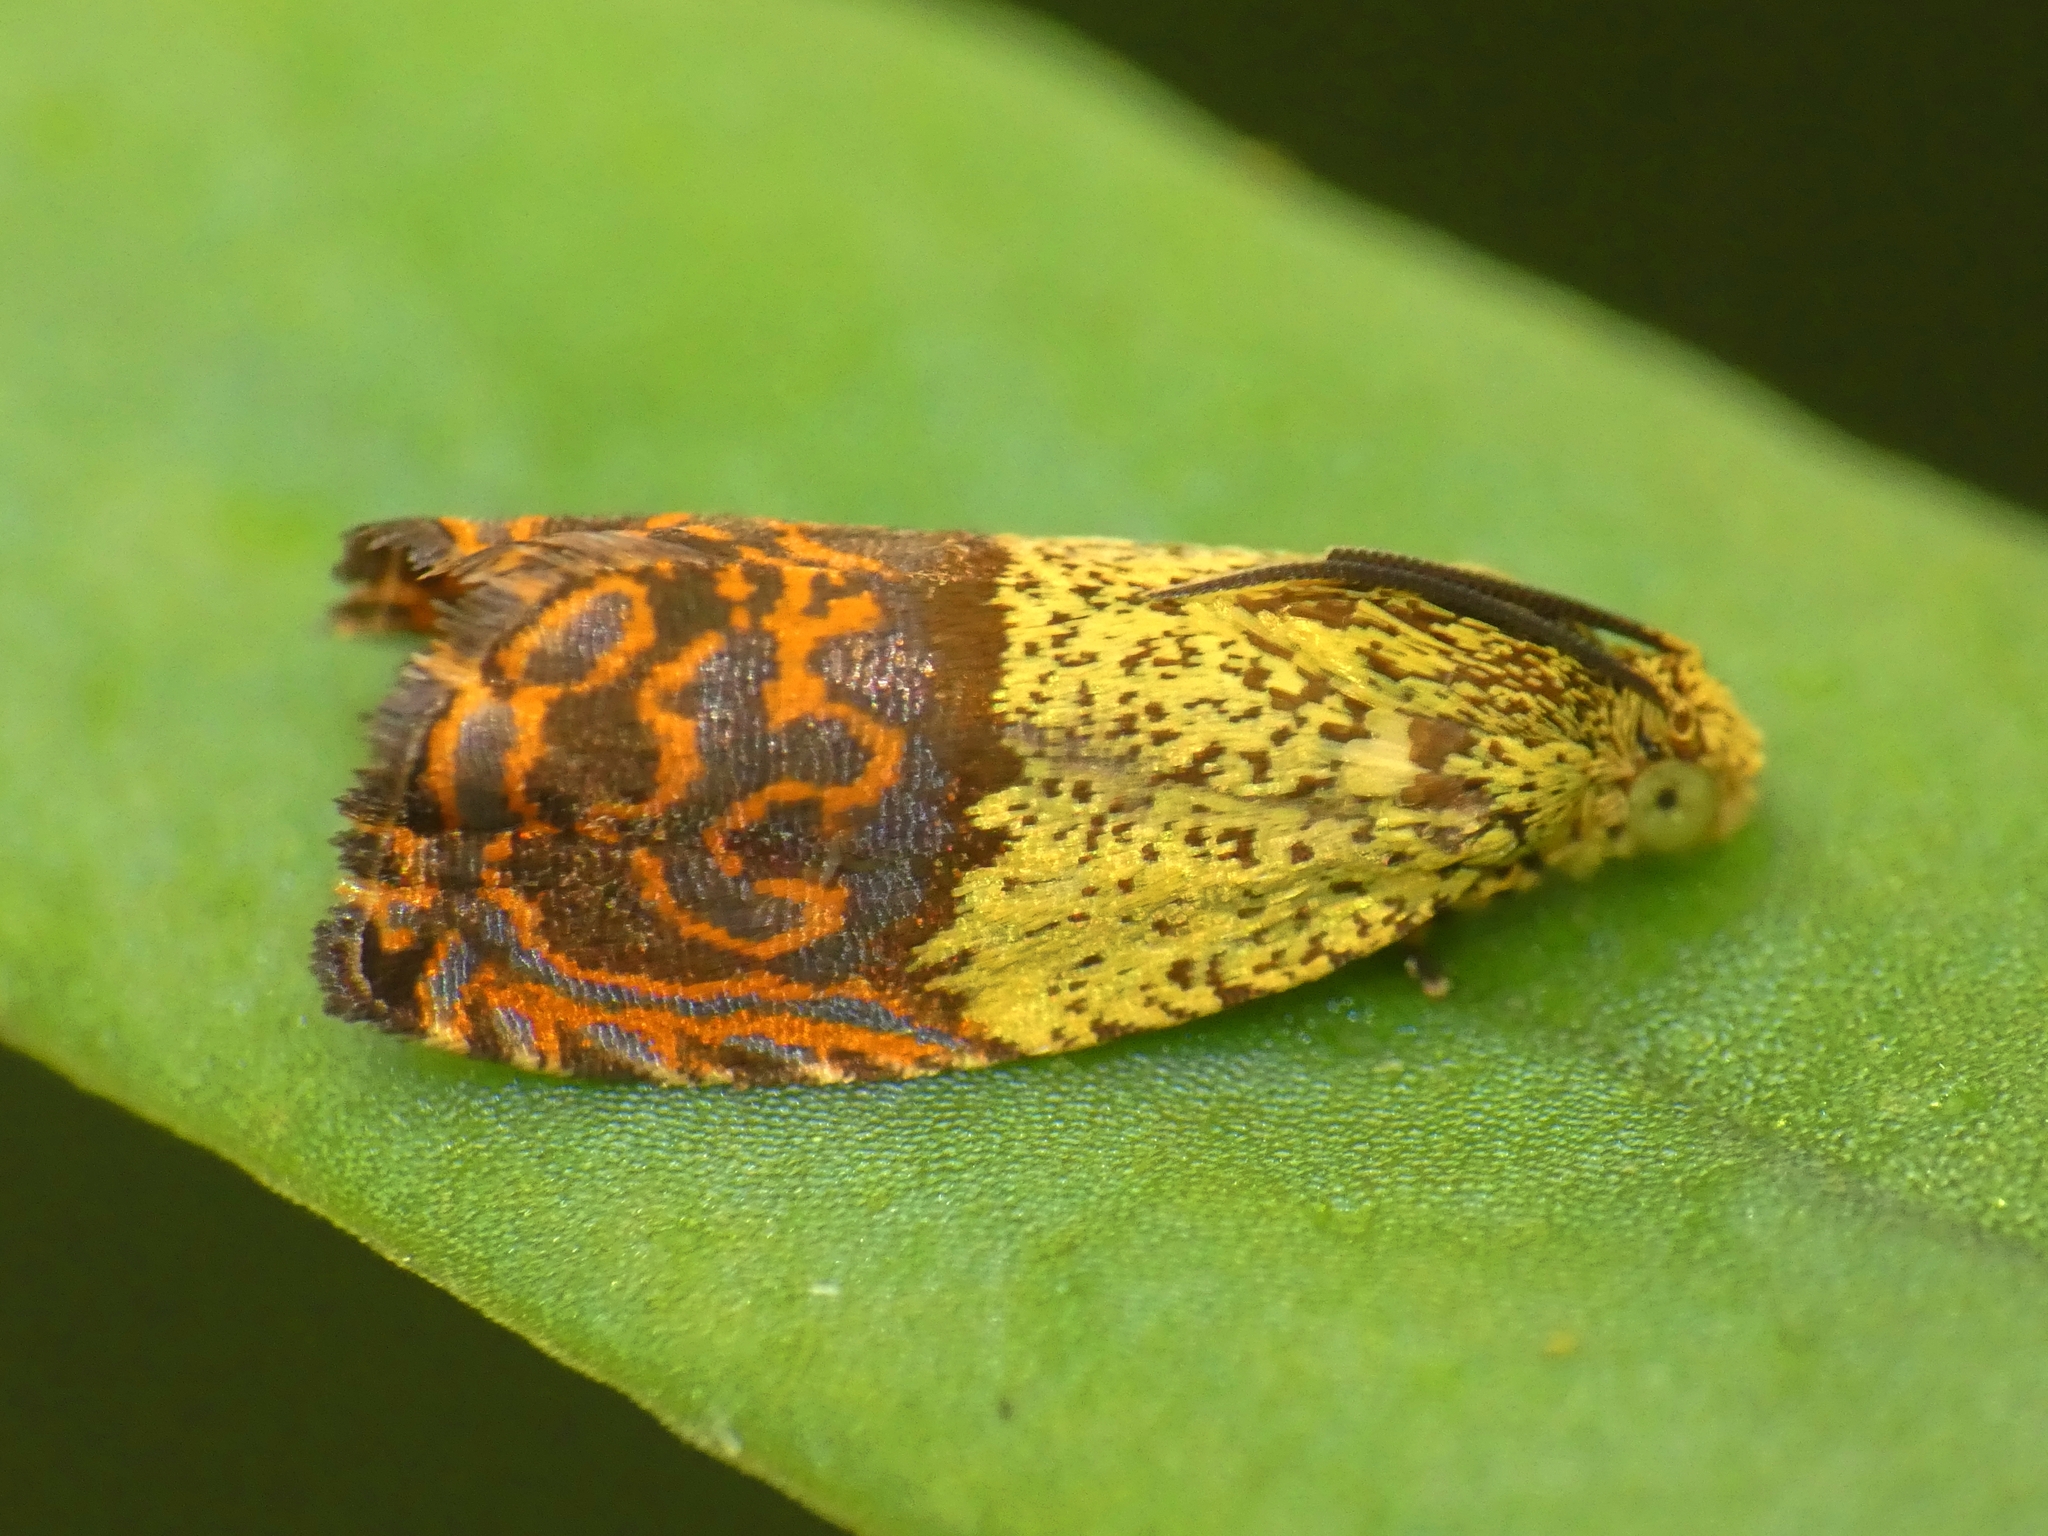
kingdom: Animalia
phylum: Arthropoda
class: Insecta
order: Lepidoptera
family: Tortricidae
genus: Anthozela
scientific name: Anthozela hilaris
